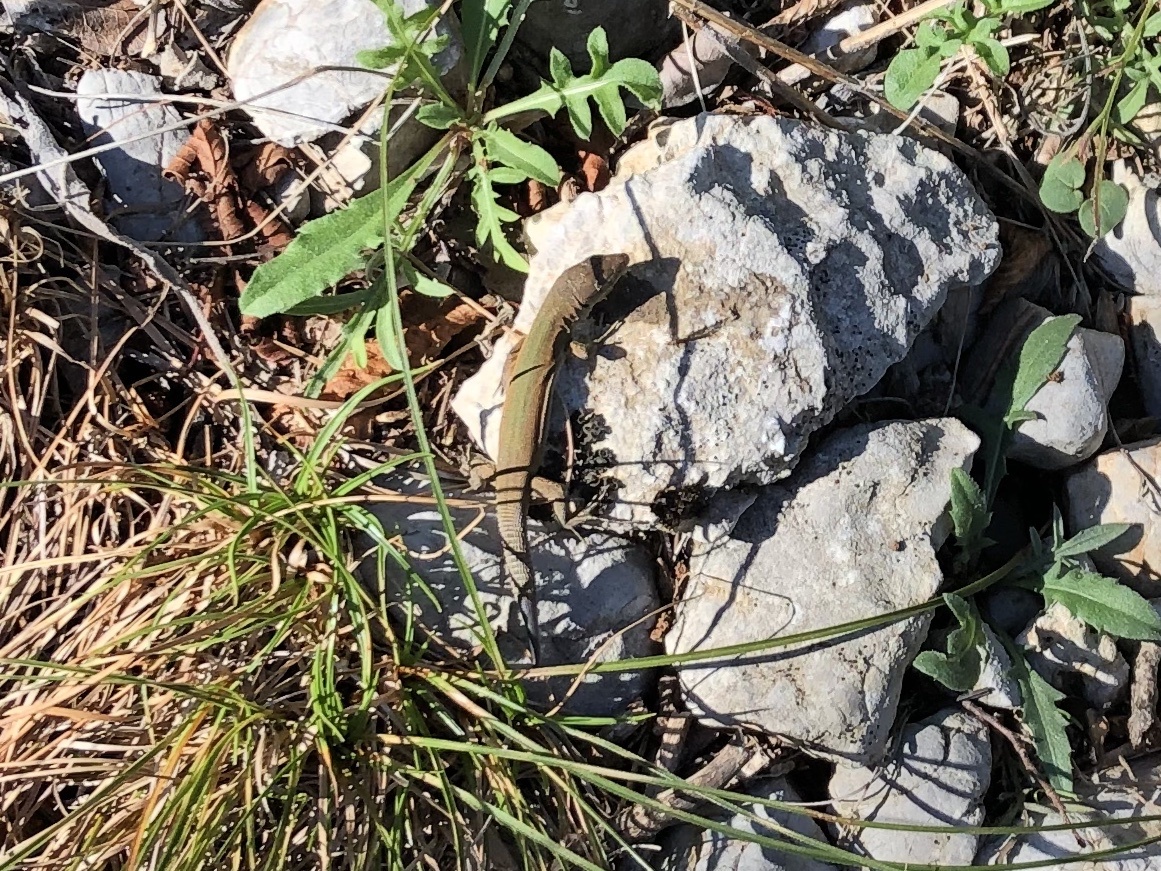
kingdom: Animalia
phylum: Chordata
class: Squamata
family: Lacertidae
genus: Podarcis
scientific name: Podarcis melisellensis
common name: Dalmatian wall lizard
